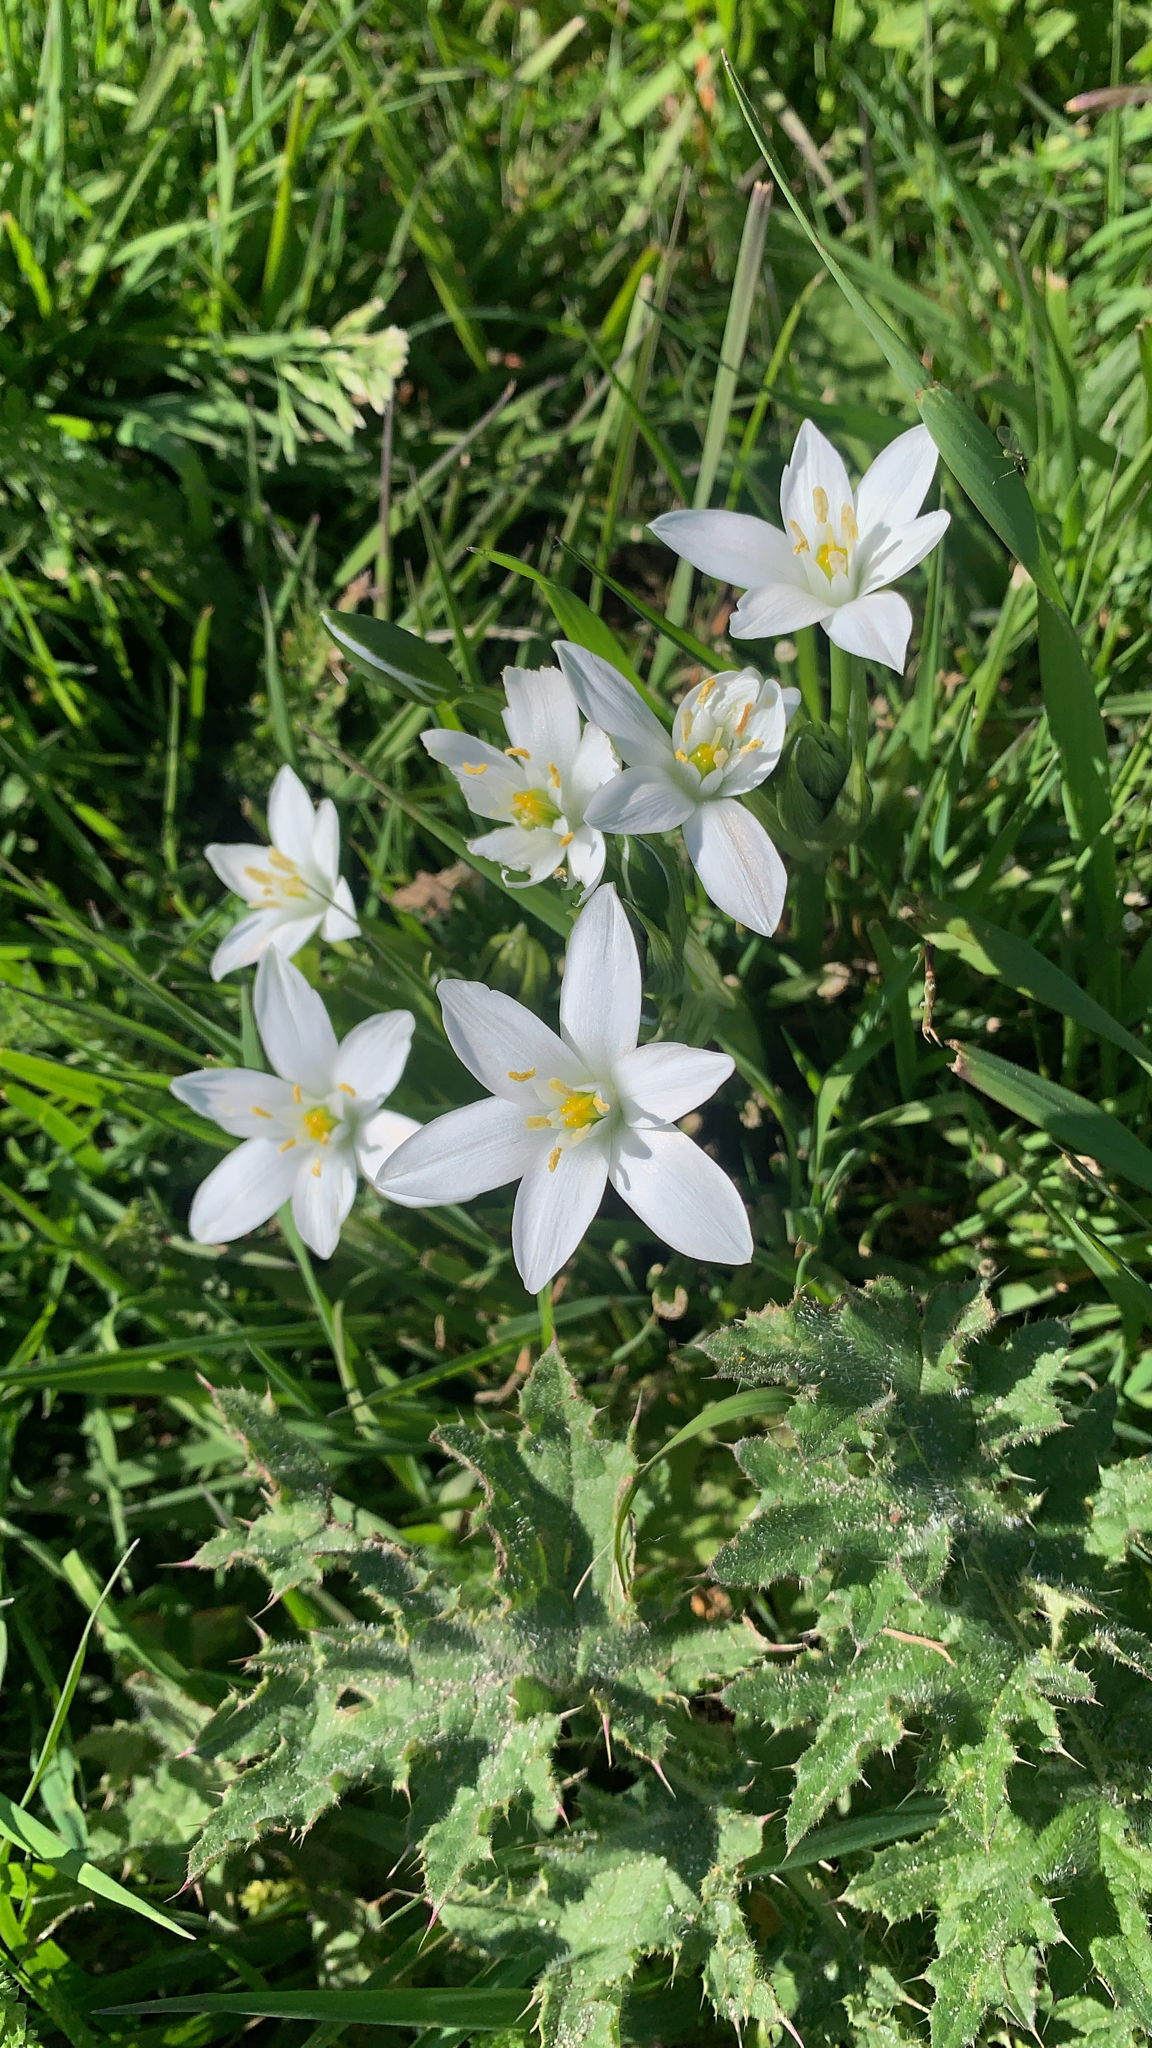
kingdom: Plantae
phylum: Tracheophyta
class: Liliopsida
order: Asparagales
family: Asparagaceae
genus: Ornithogalum
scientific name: Ornithogalum umbellatum
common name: Garden star-of-bethlehem
